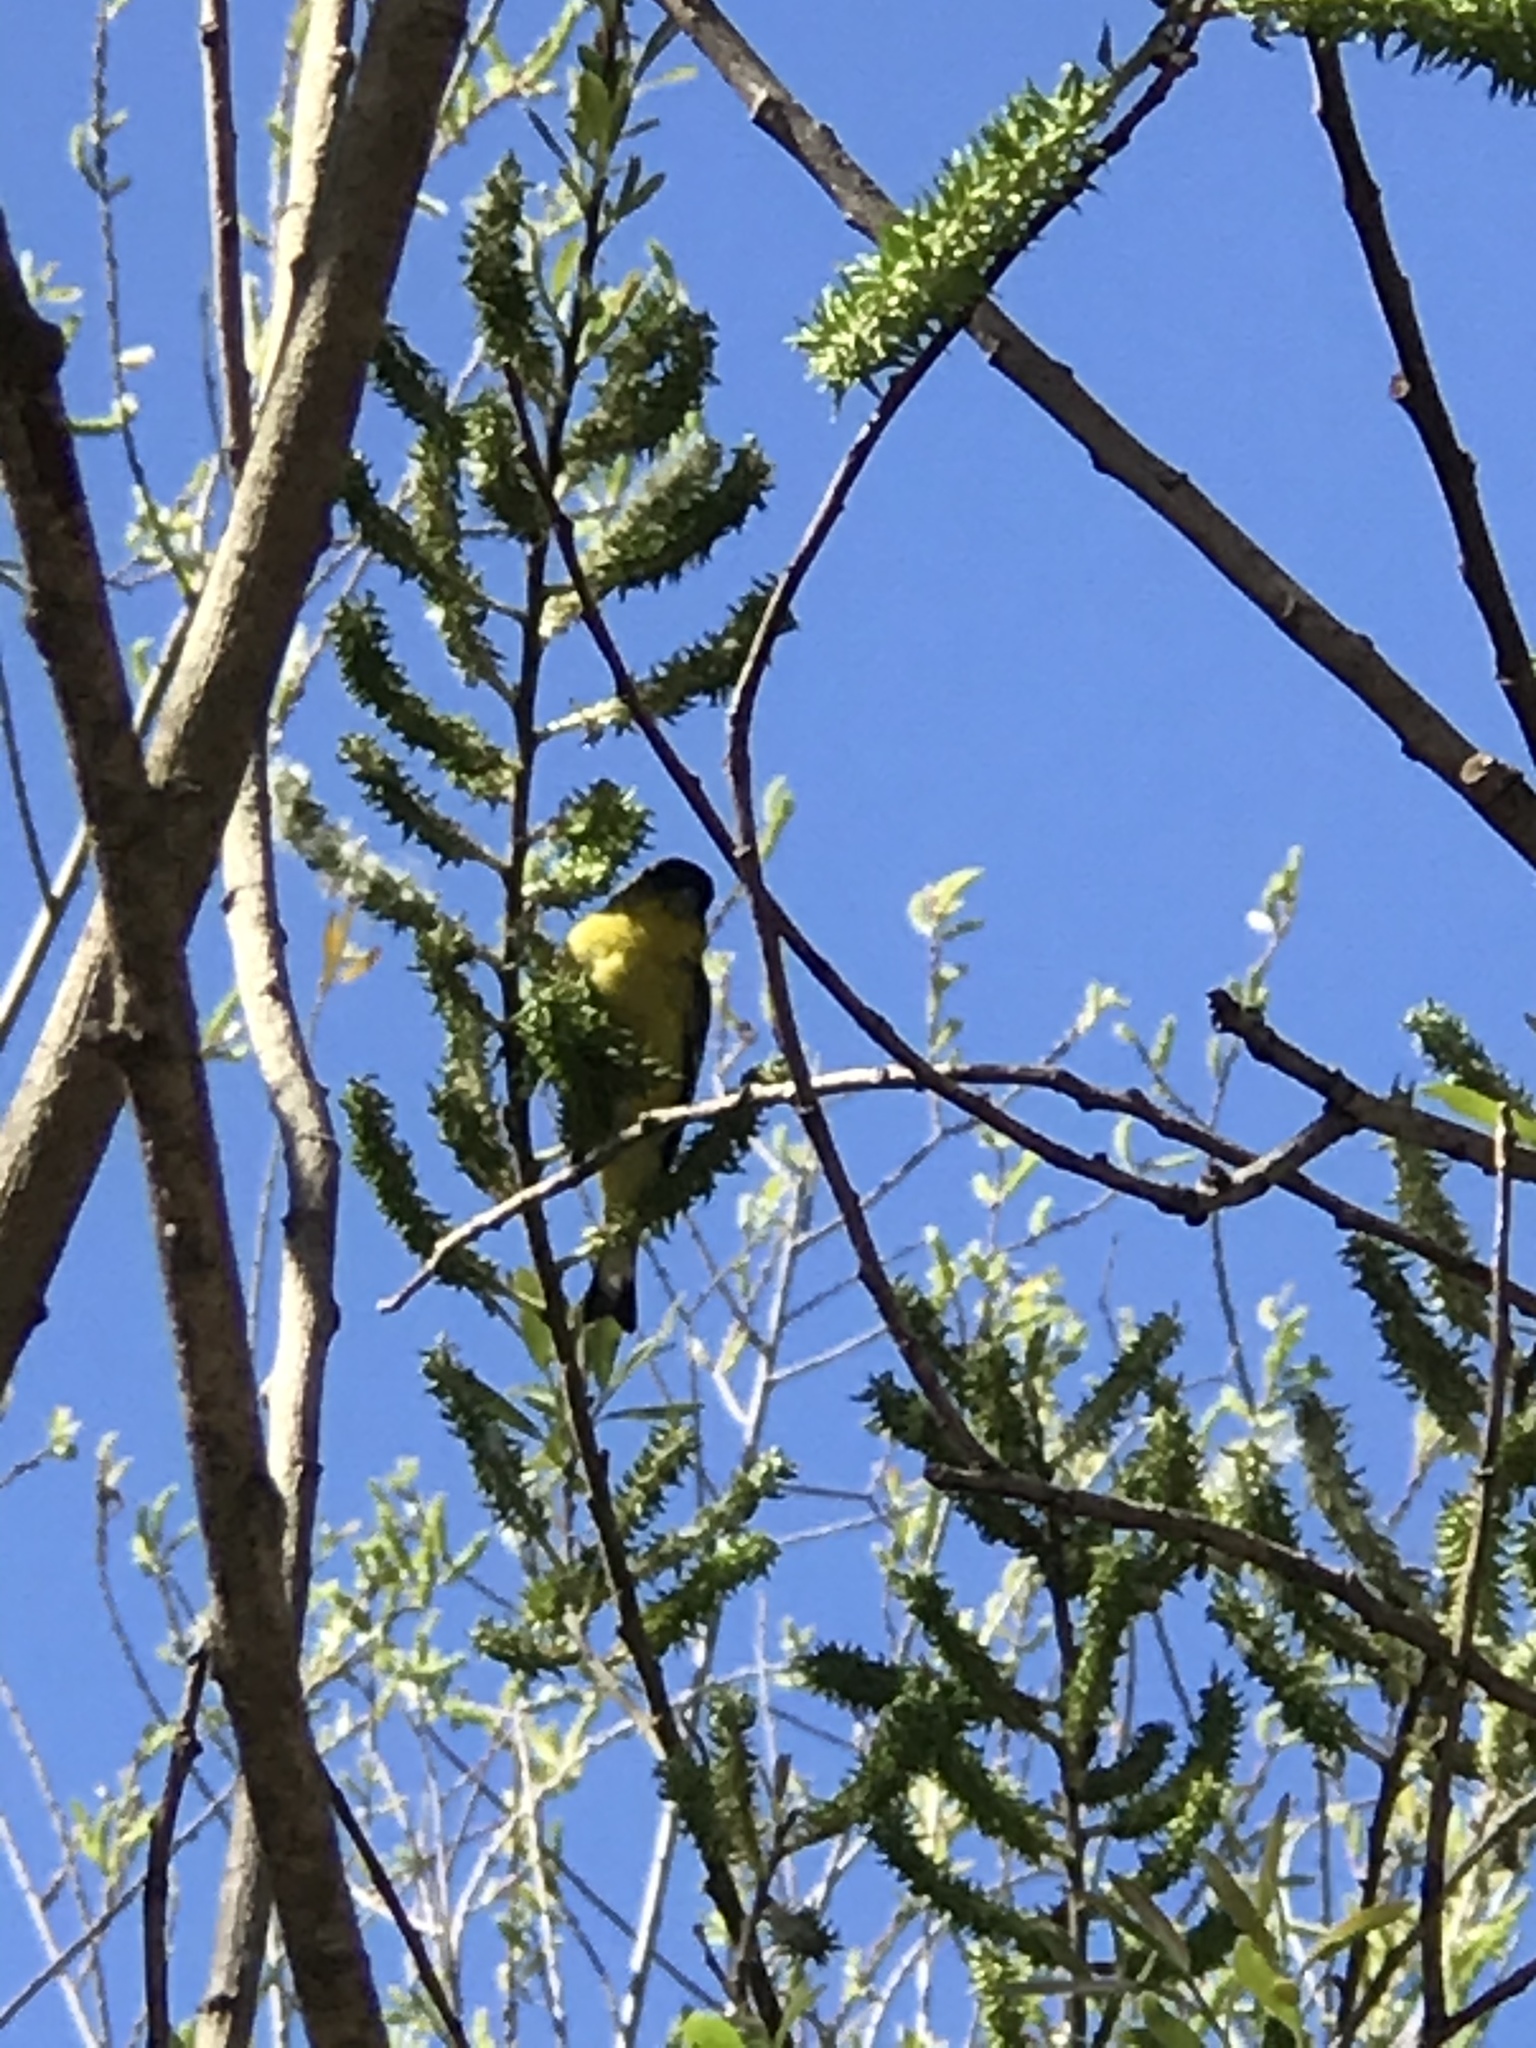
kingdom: Animalia
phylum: Chordata
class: Aves
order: Passeriformes
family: Fringillidae
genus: Spinus
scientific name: Spinus psaltria
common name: Lesser goldfinch
